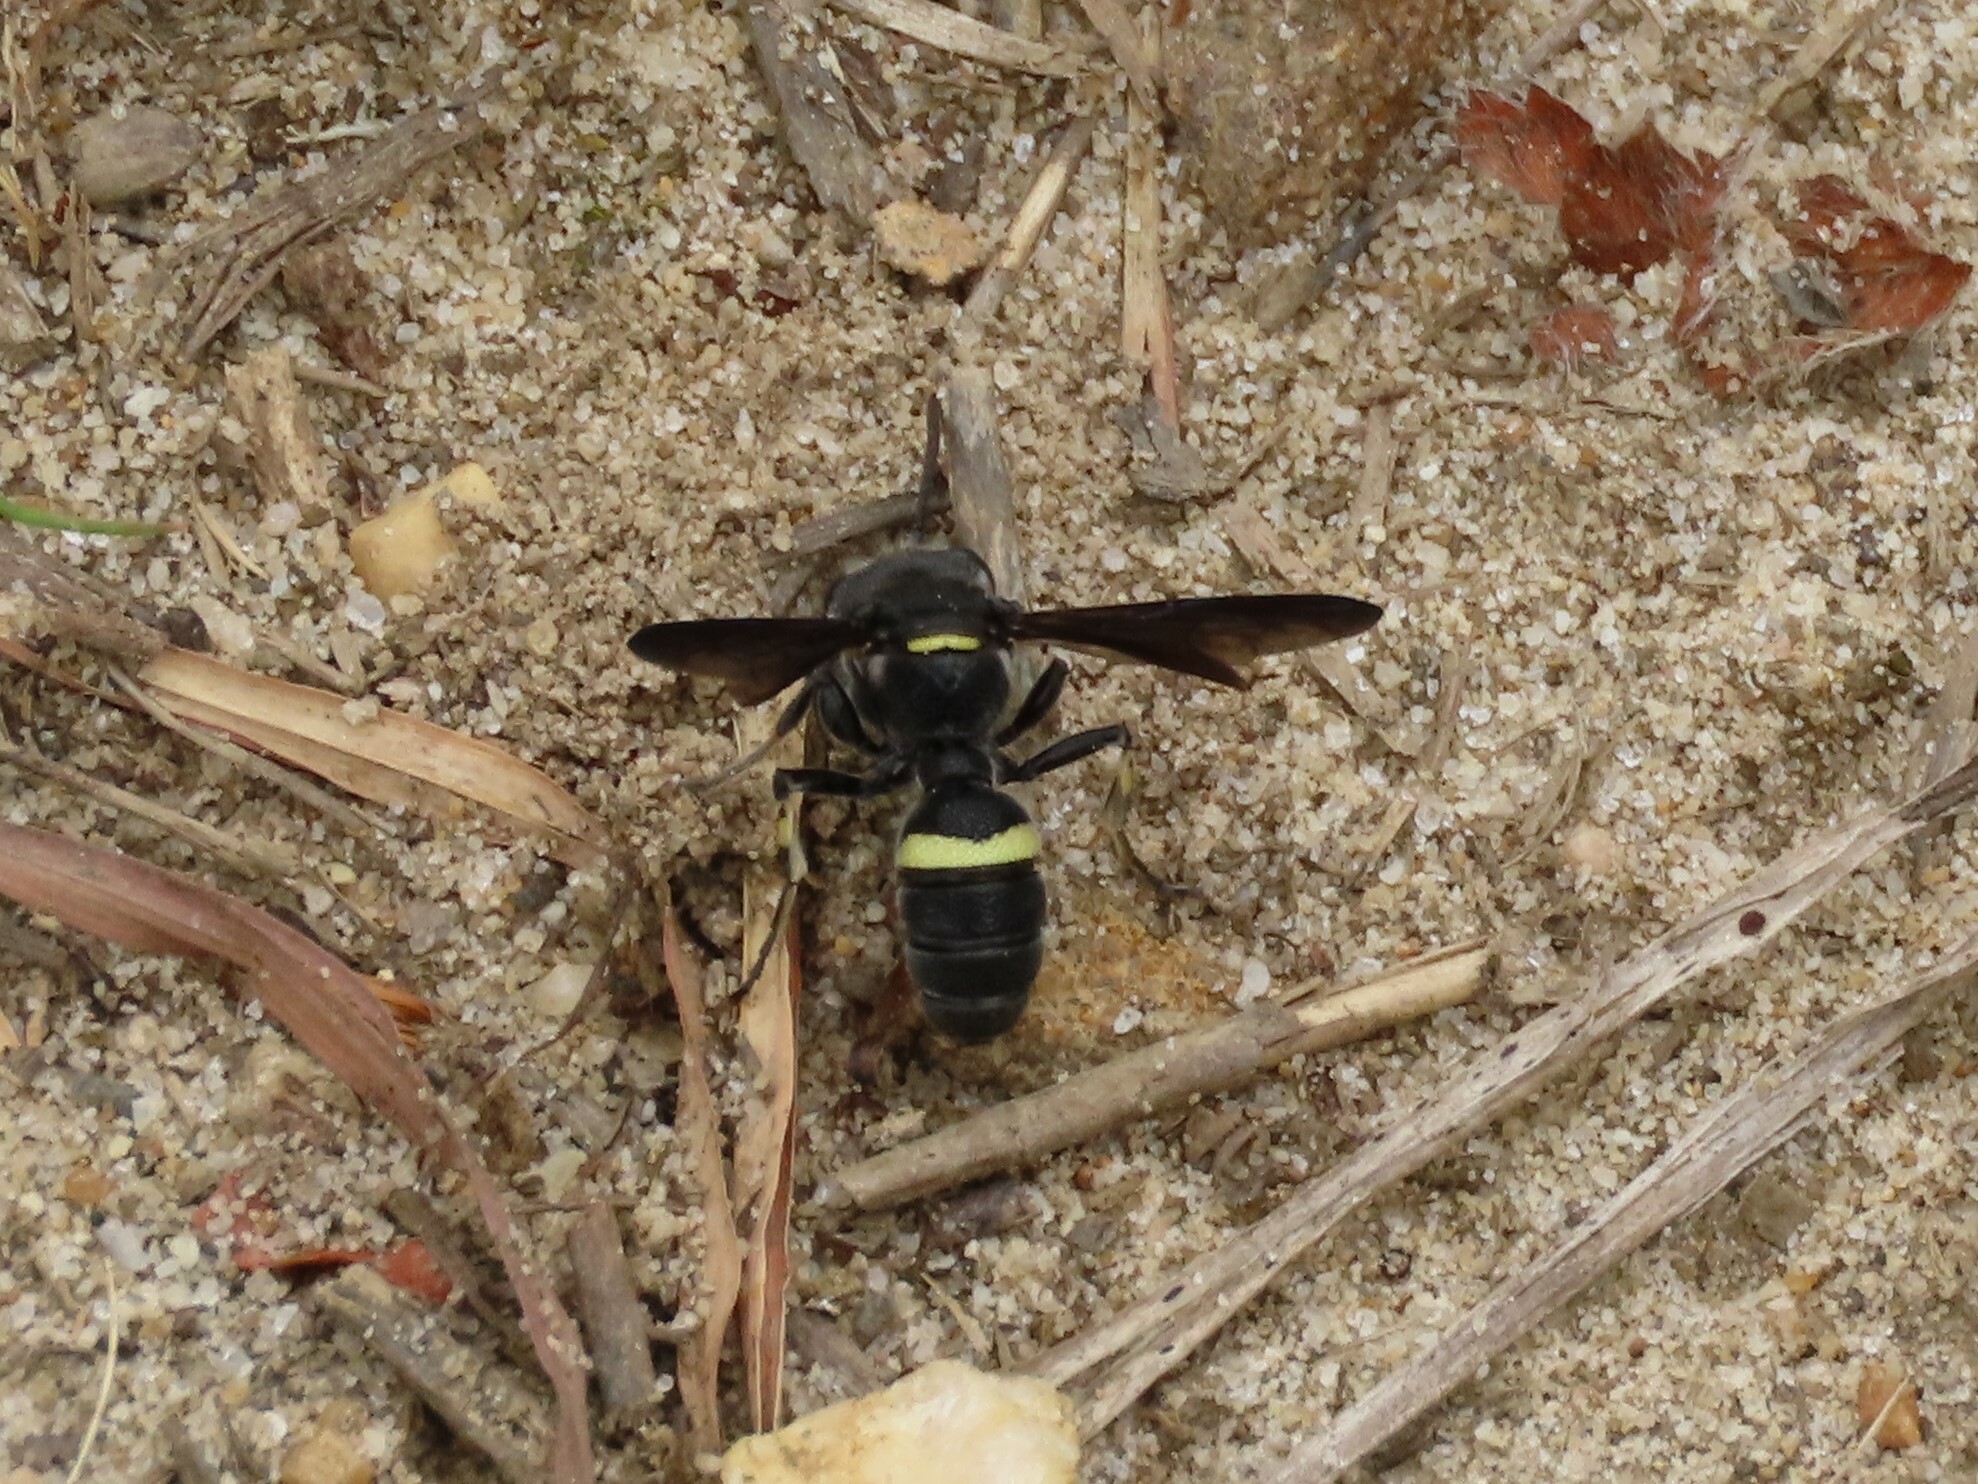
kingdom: Animalia
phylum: Arthropoda
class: Insecta
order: Hymenoptera
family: Crabronidae
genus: Cerceris
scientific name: Cerceris fumipennis
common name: Smokey-winged beetle bandit wasp
